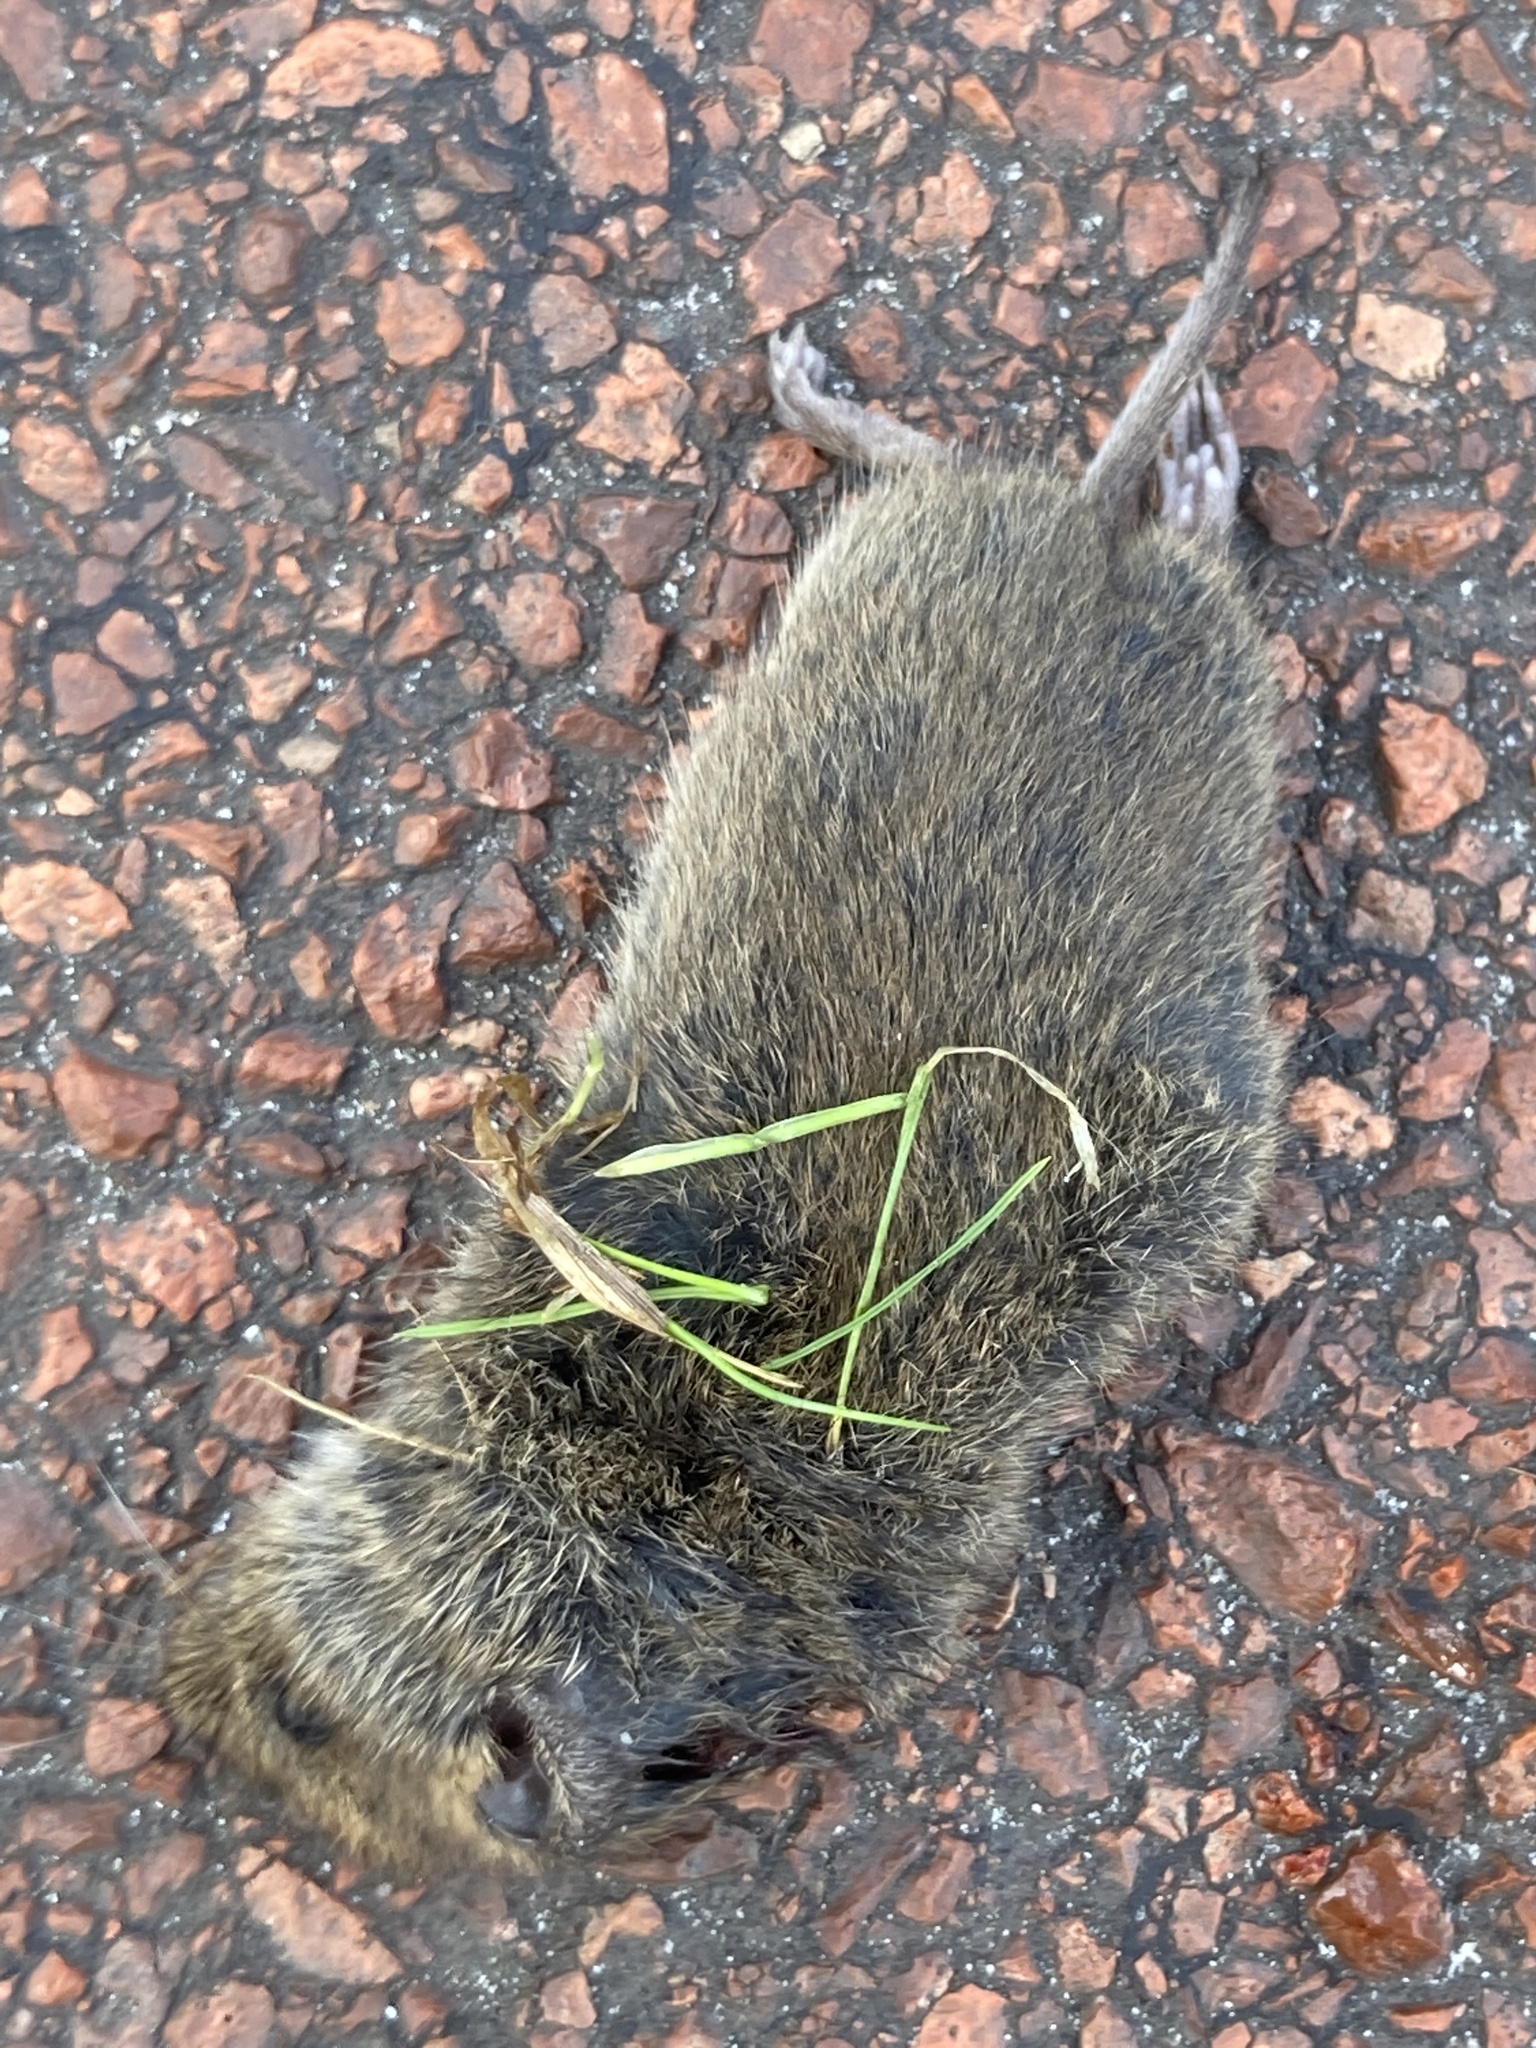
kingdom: Animalia
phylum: Chordata
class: Mammalia
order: Rodentia
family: Cricetidae
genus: Microtus
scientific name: Microtus arvalis
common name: Common vole
